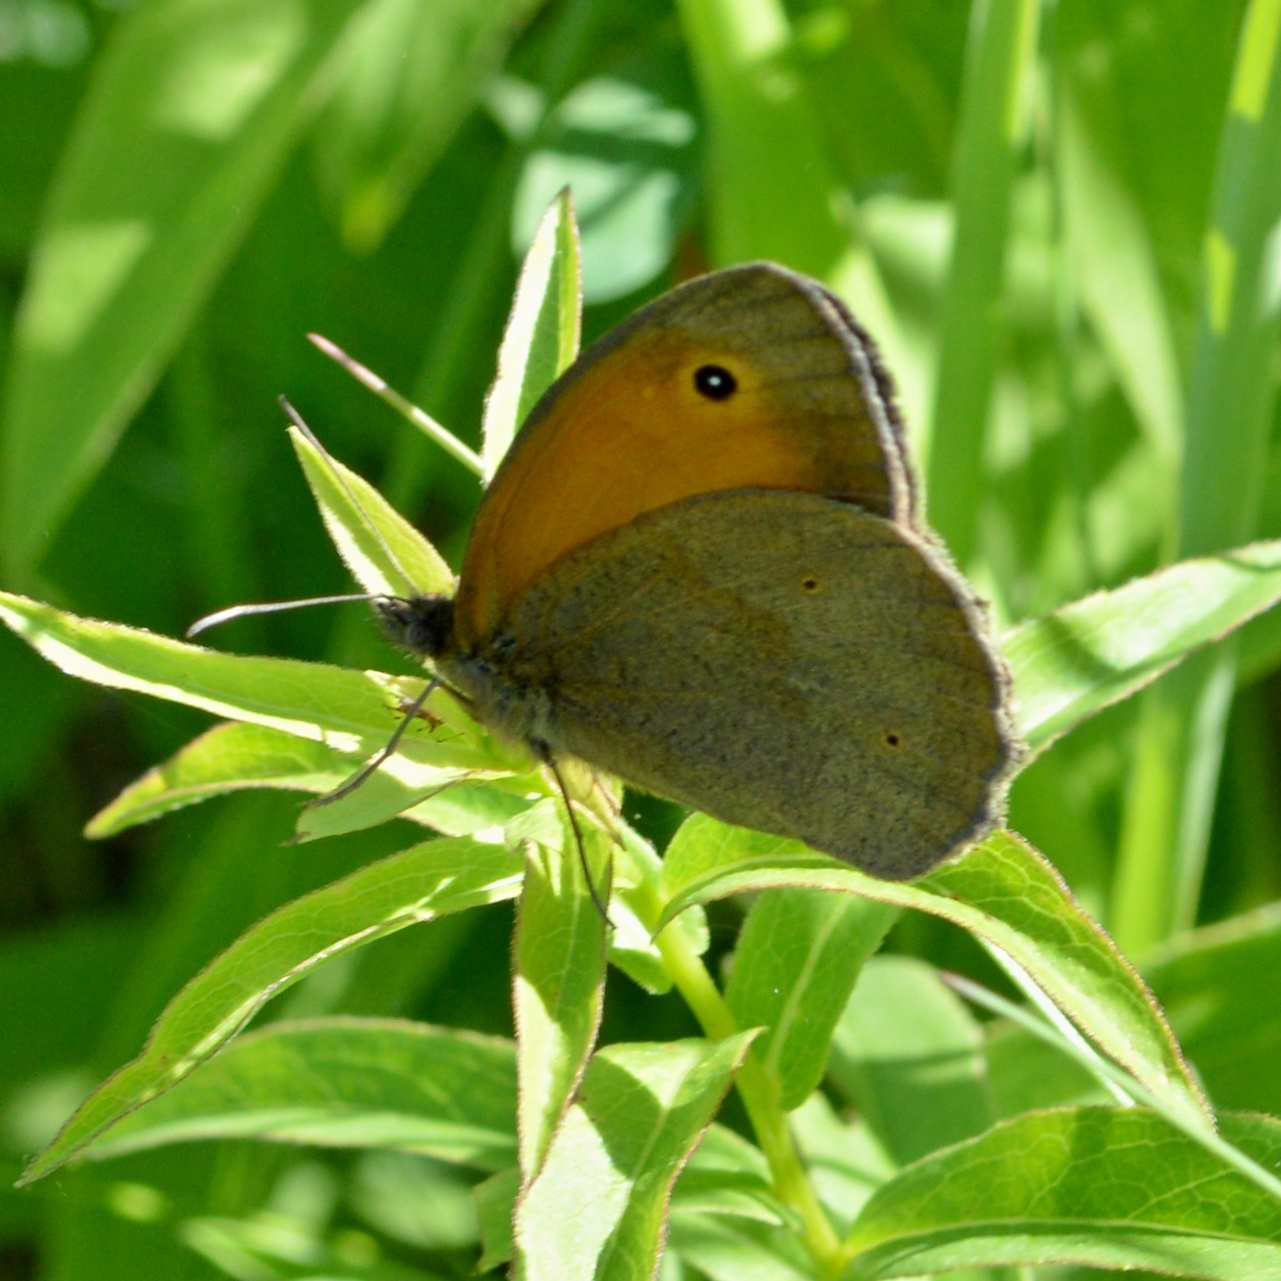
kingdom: Animalia
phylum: Arthropoda
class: Insecta
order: Lepidoptera
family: Nymphalidae
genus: Maniola
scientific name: Maniola jurtina
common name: Meadow brown
